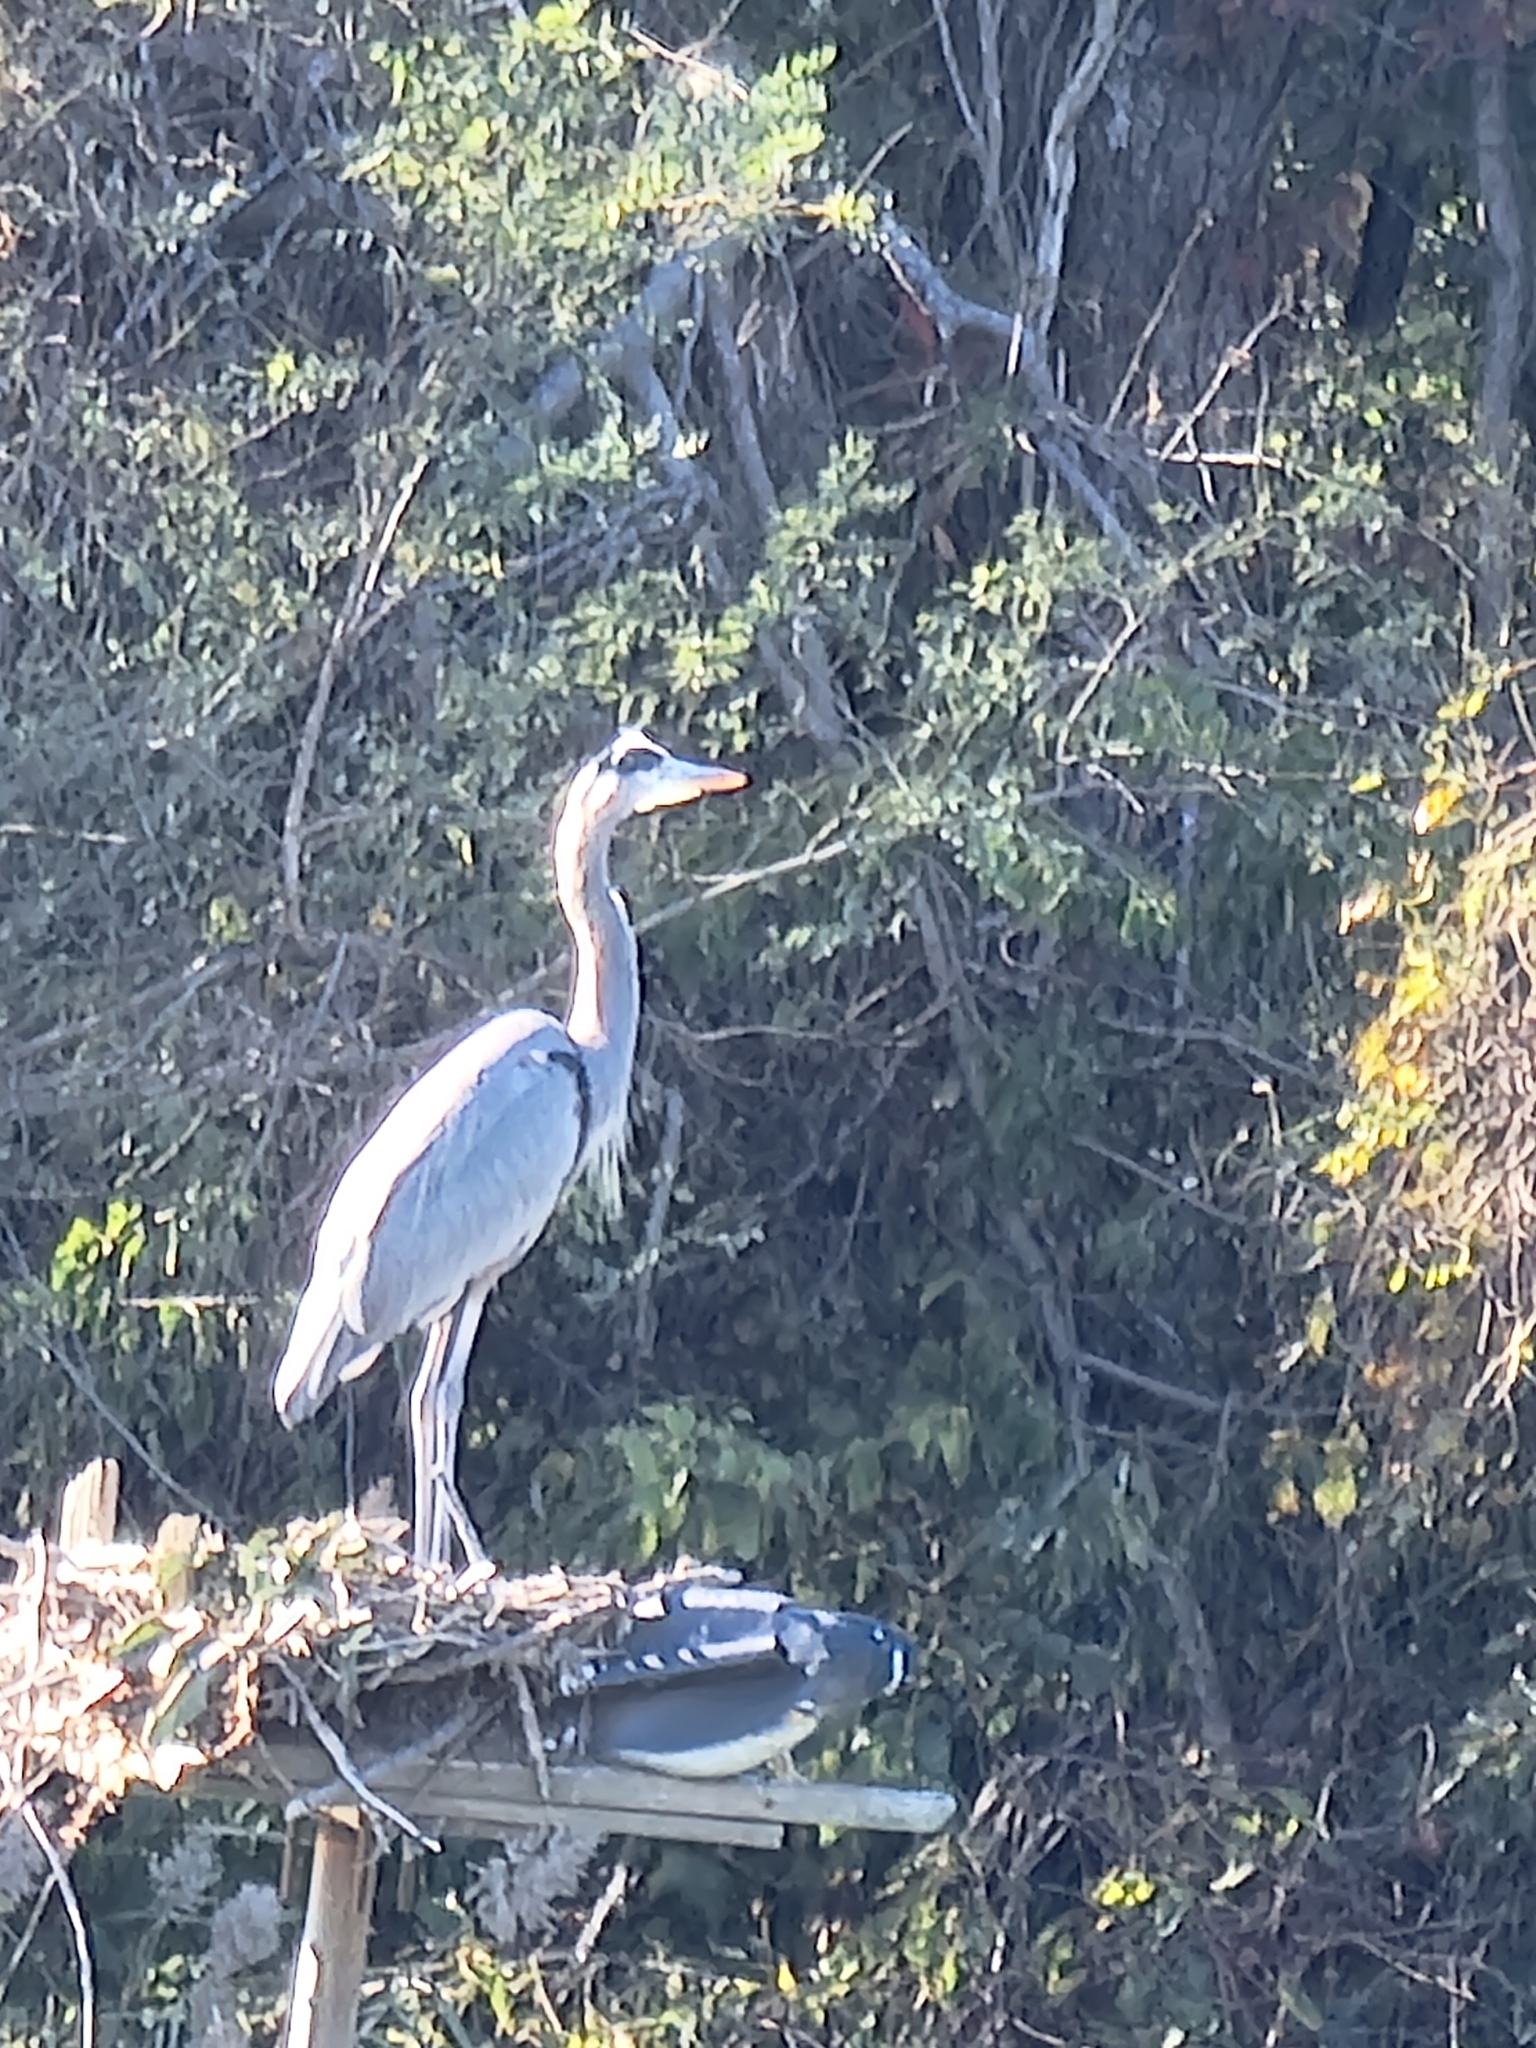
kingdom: Animalia
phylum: Chordata
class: Aves
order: Pelecaniformes
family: Ardeidae
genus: Ardea
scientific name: Ardea herodias
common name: Great blue heron
